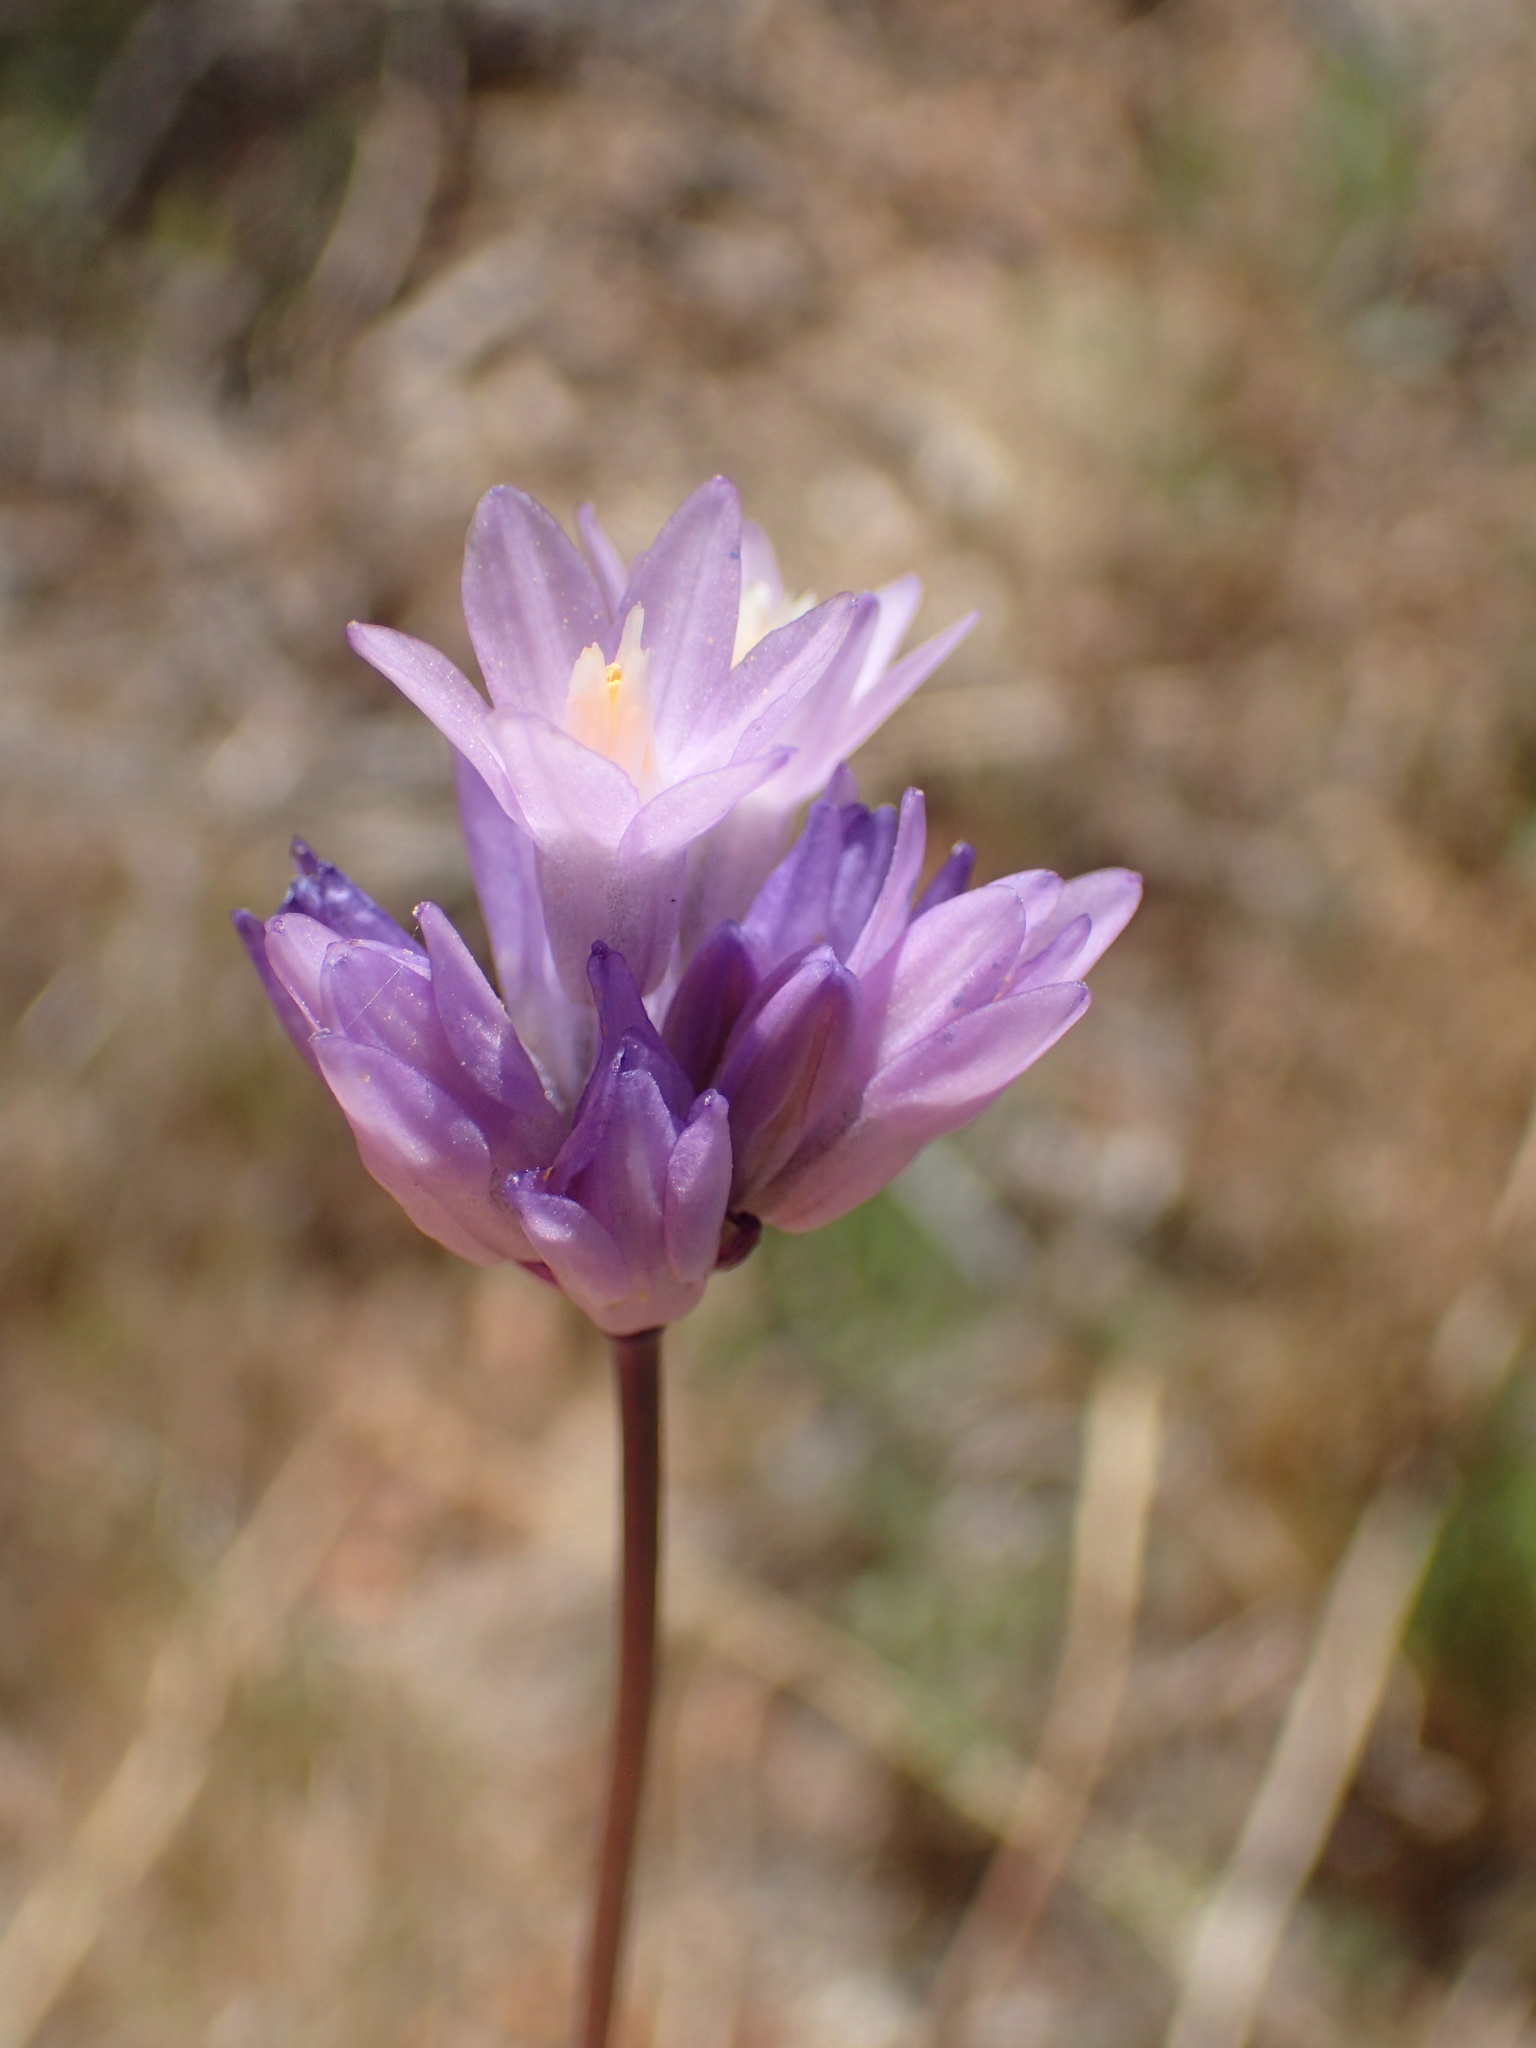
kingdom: Plantae
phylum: Tracheophyta
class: Liliopsida
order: Asparagales
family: Asparagaceae
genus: Dipterostemon
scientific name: Dipterostemon capitatus
